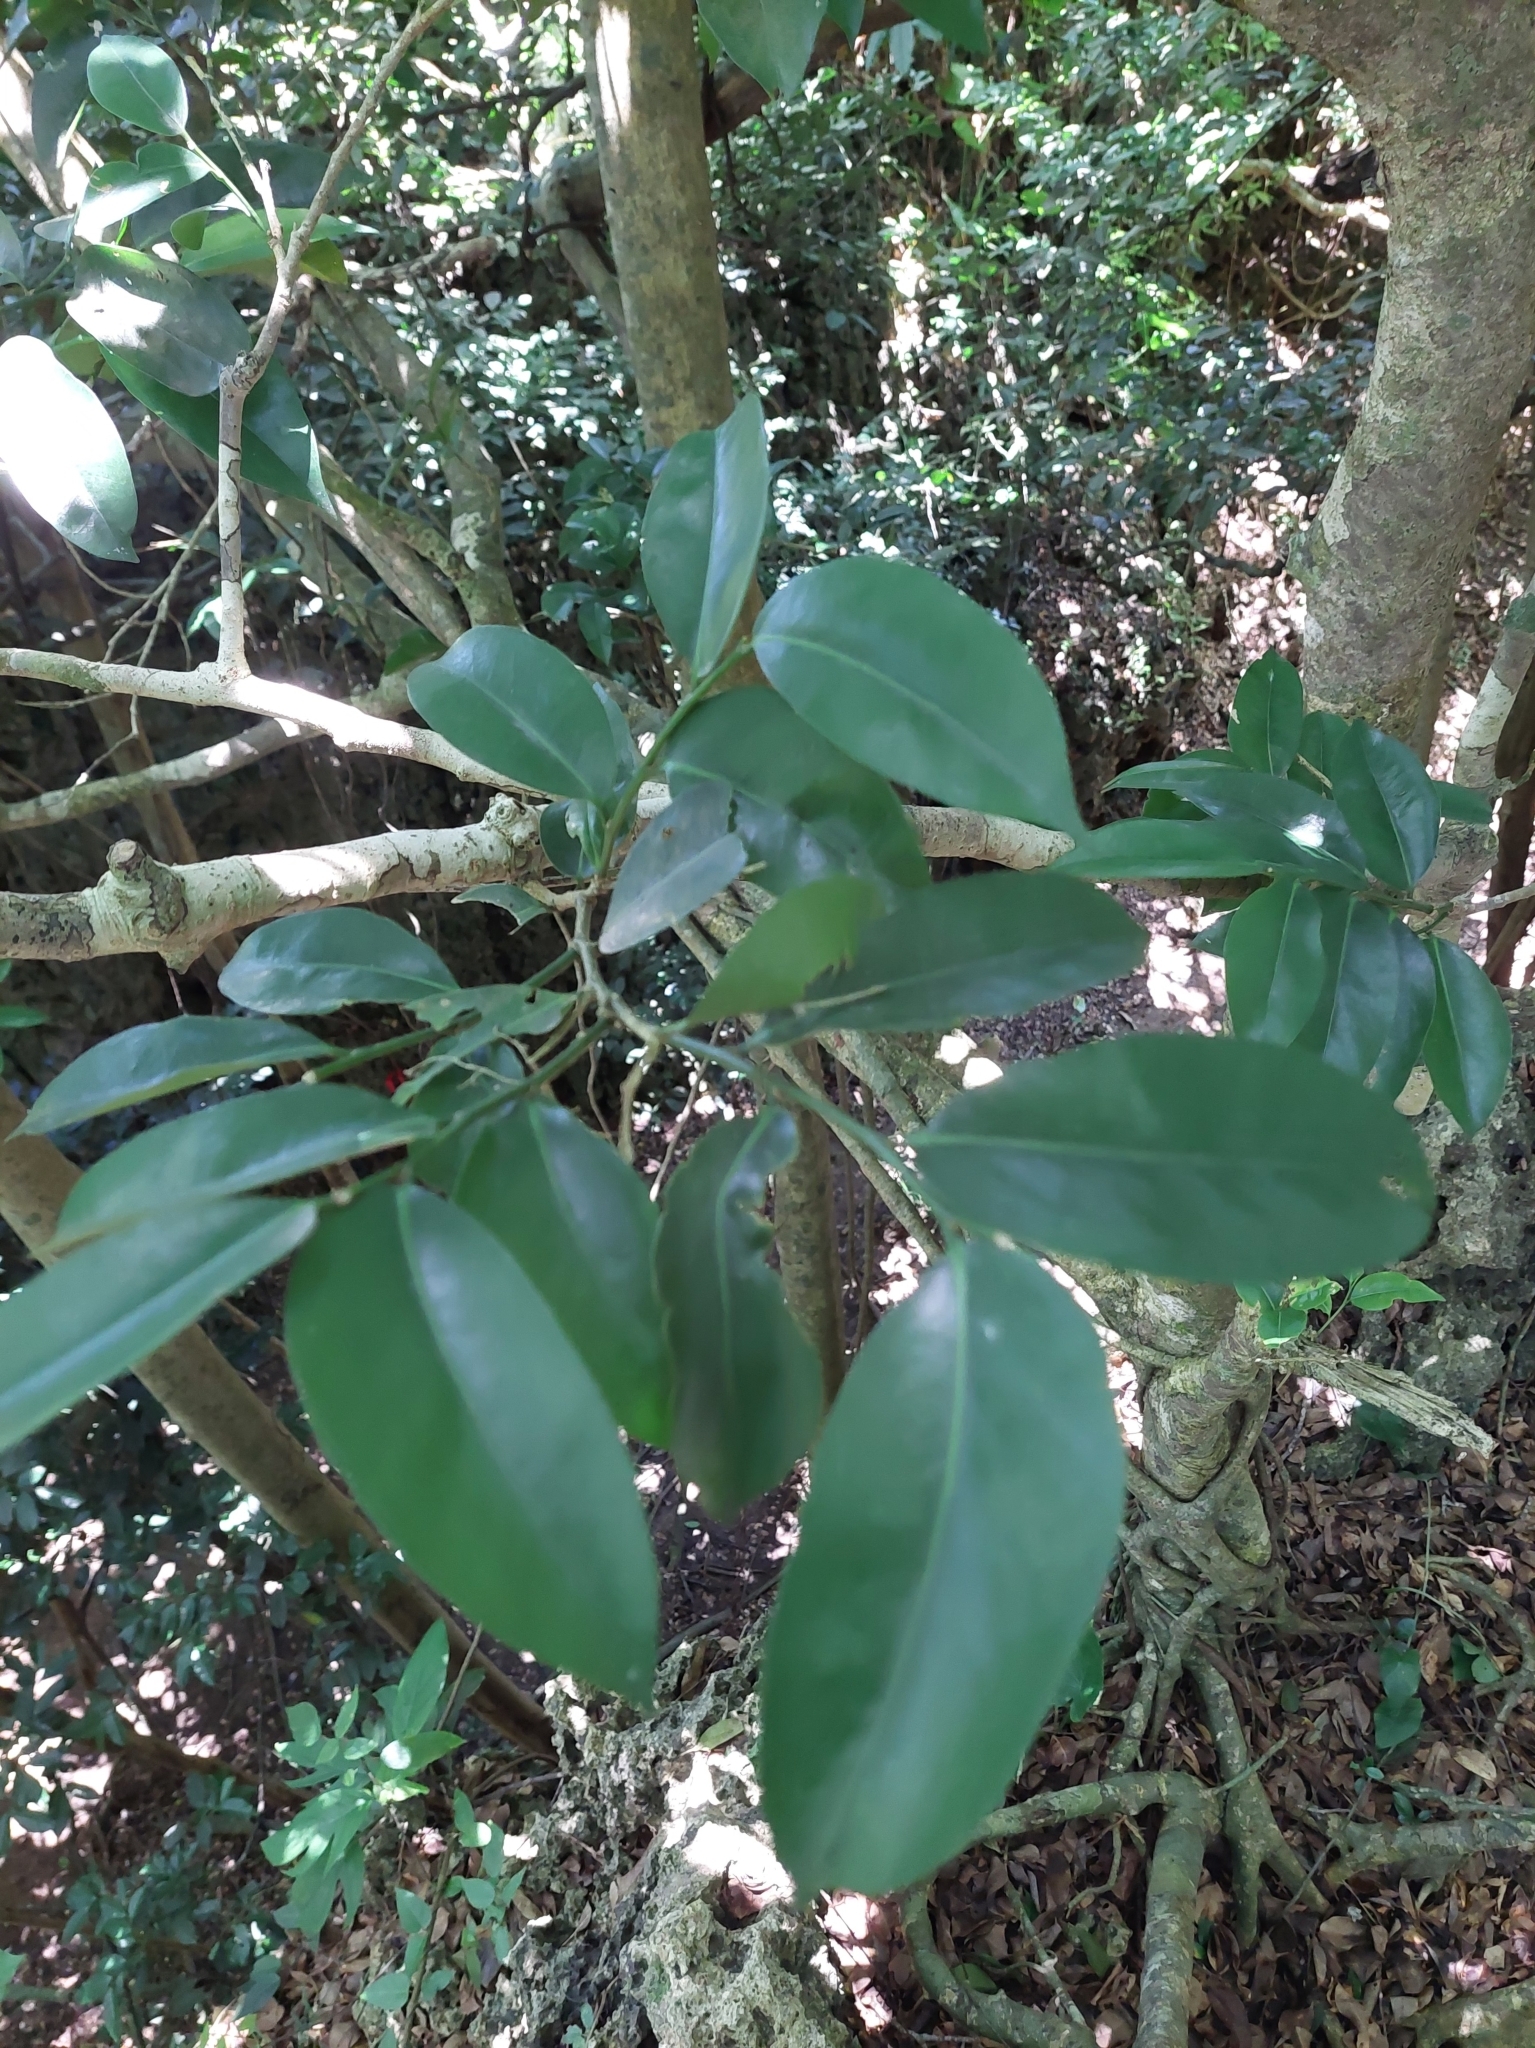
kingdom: Plantae
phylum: Tracheophyta
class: Magnoliopsida
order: Malpighiales
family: Putranjivaceae
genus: Drypetes
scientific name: Drypetes littoralis
